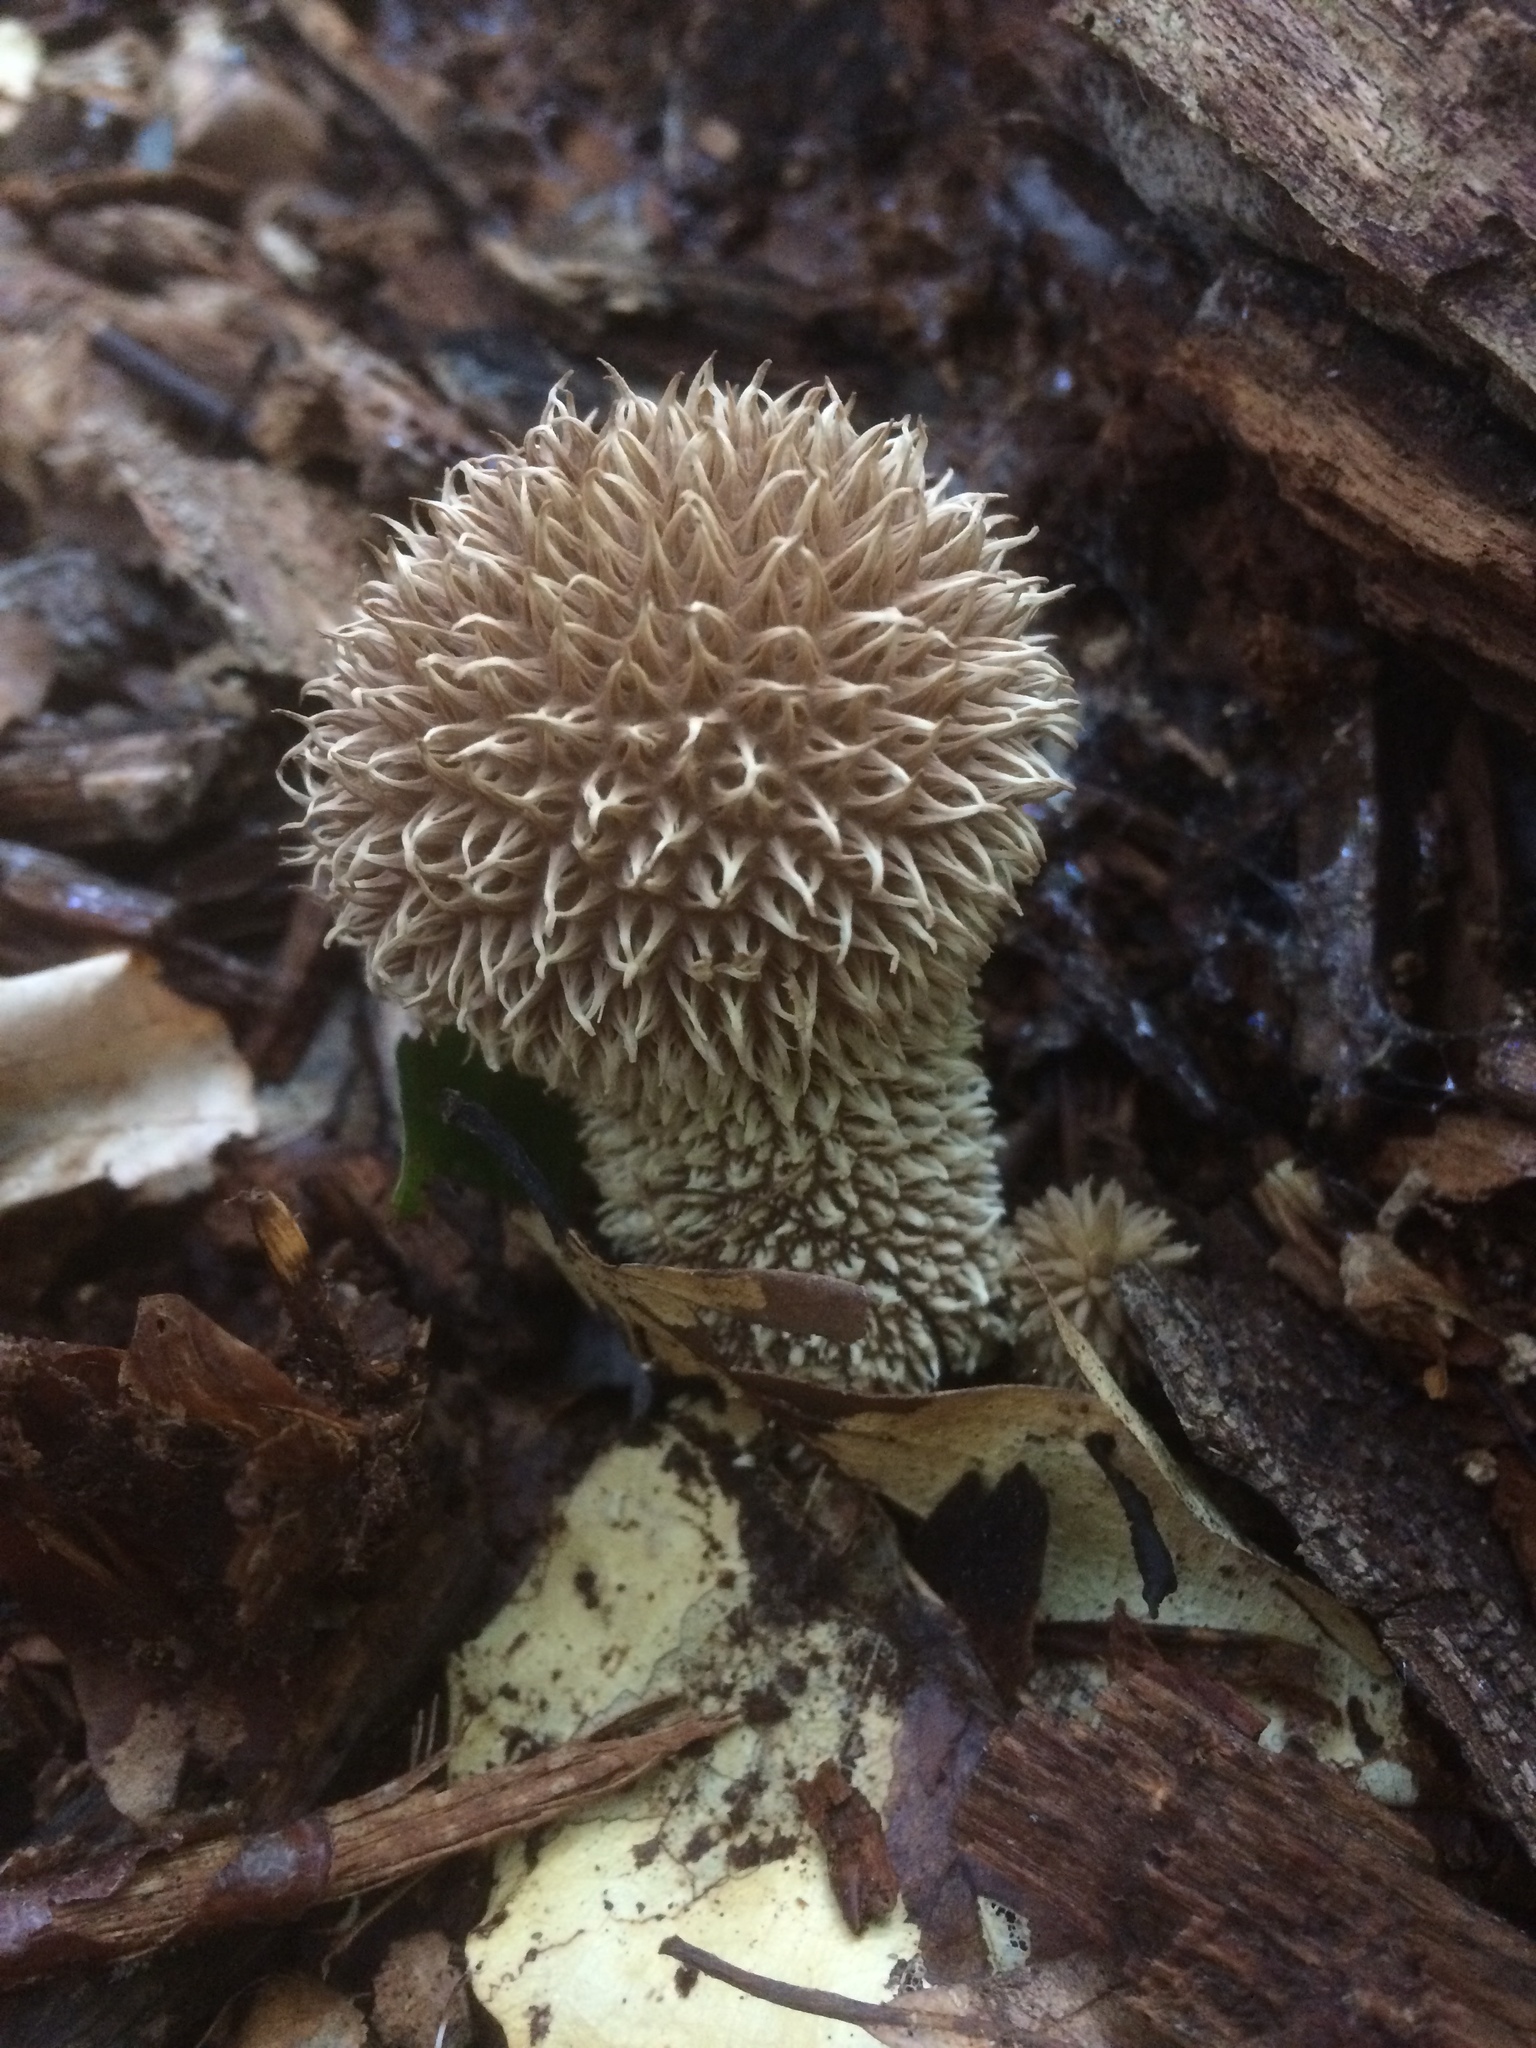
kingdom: Fungi
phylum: Basidiomycota
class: Agaricomycetes
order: Agaricales
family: Lycoperdaceae
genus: Lycoperdon
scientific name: Lycoperdon echinatum
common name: Hedgehog puffball
